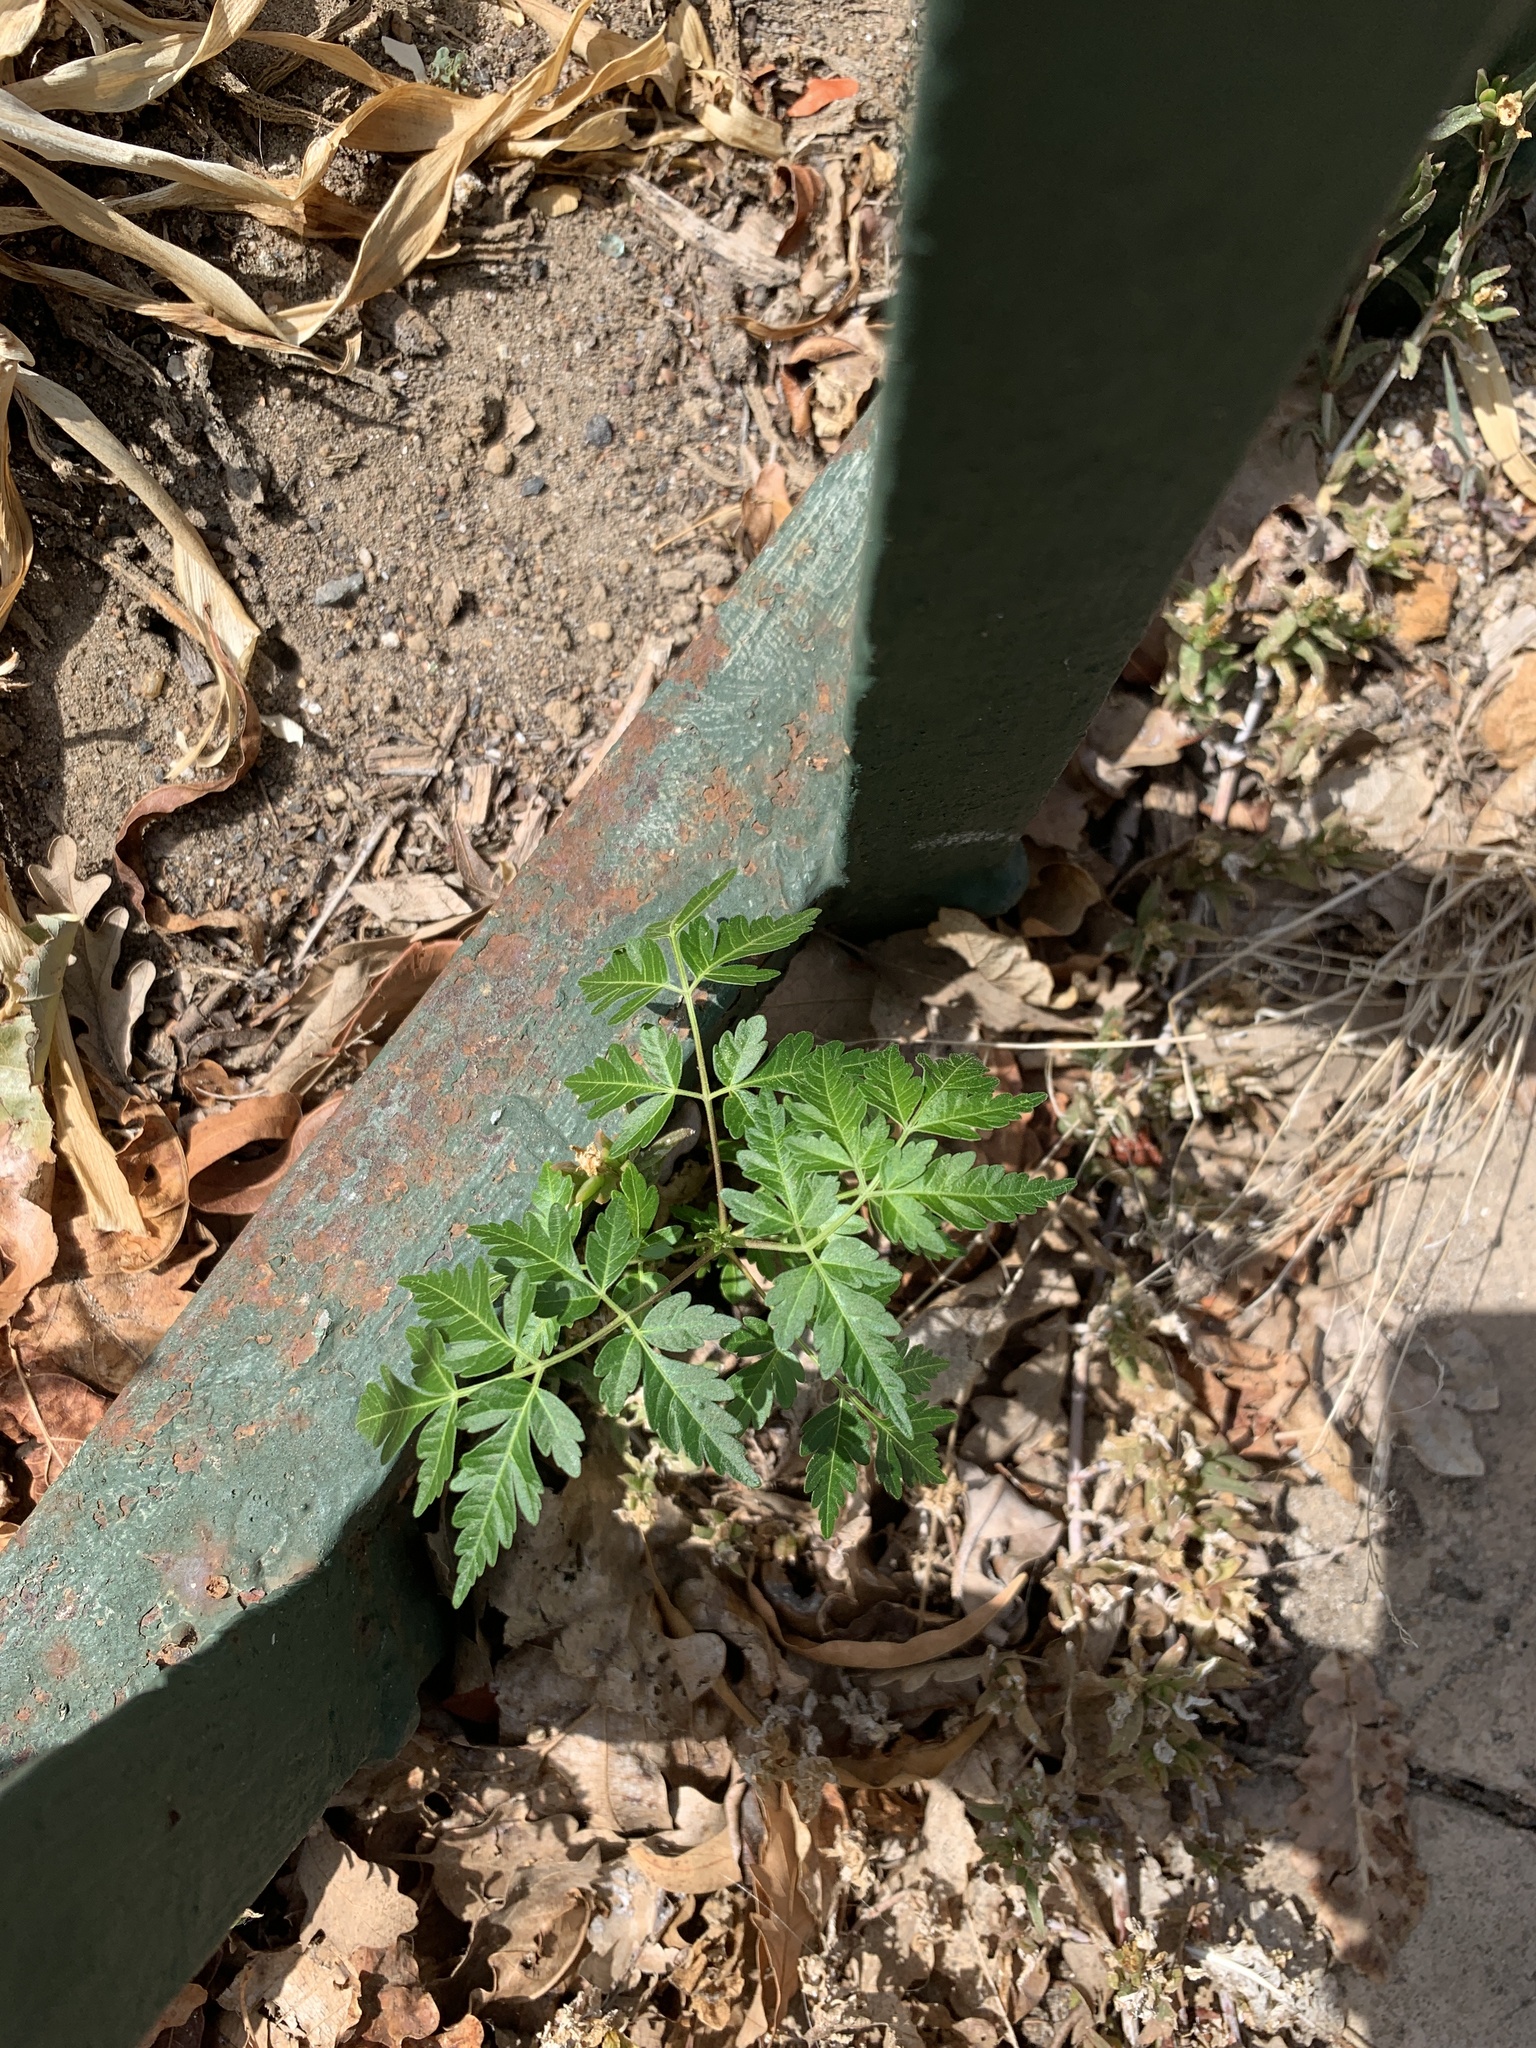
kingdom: Plantae
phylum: Tracheophyta
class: Magnoliopsida
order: Sapindales
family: Meliaceae
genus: Melia
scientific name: Melia azedarach
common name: Chinaberrytree
